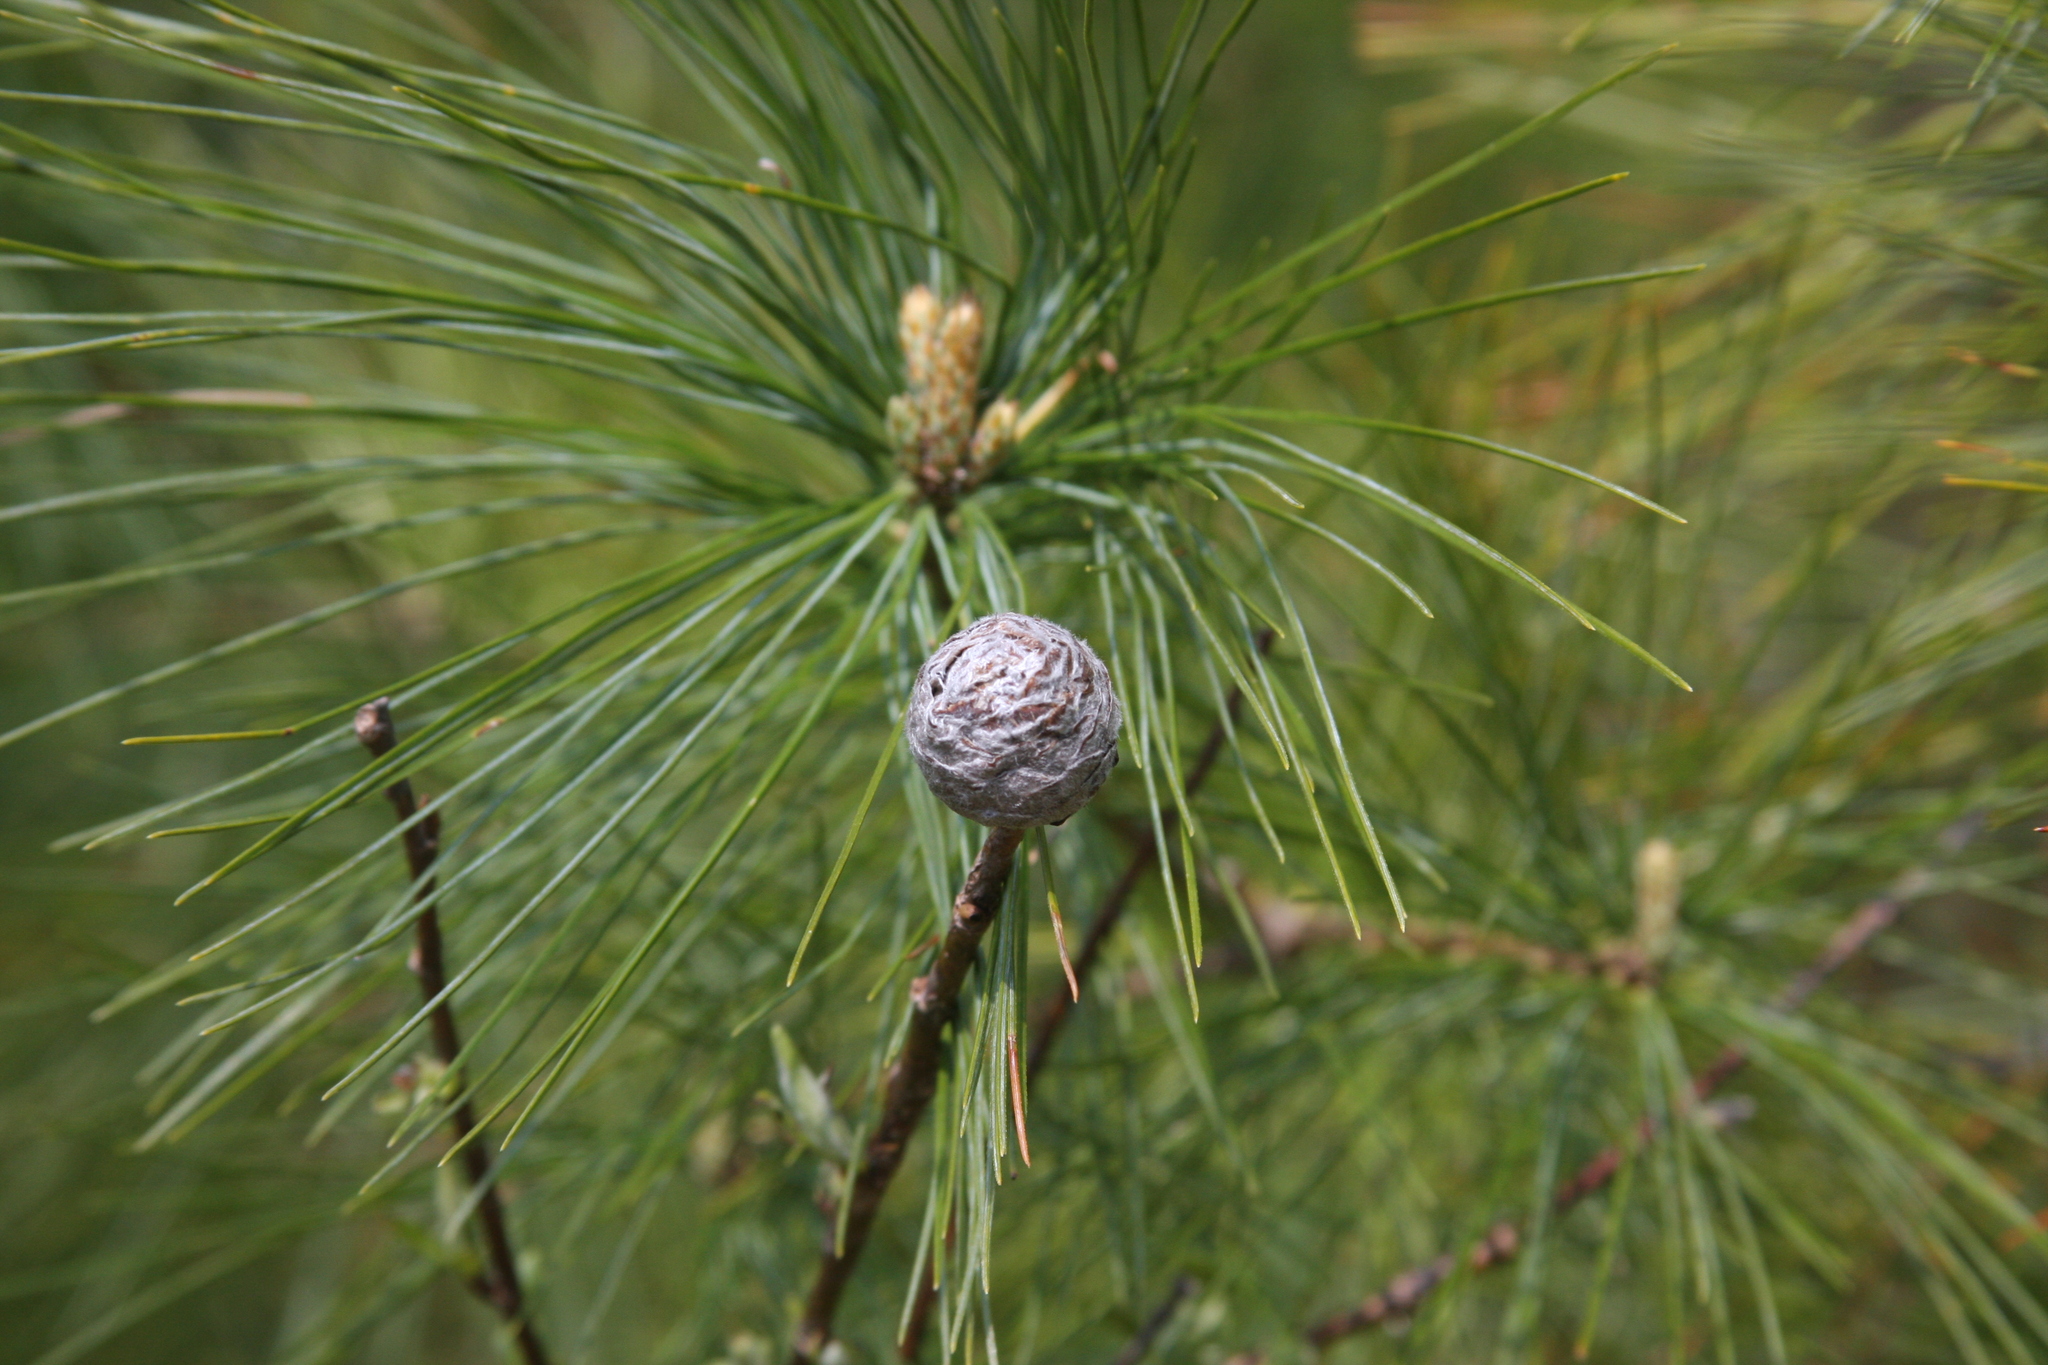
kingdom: Animalia
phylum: Arthropoda
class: Insecta
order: Diptera
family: Cecidomyiidae
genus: Rabdophaga
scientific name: Rabdophaga strobiloides
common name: Willow pinecone gall midge
